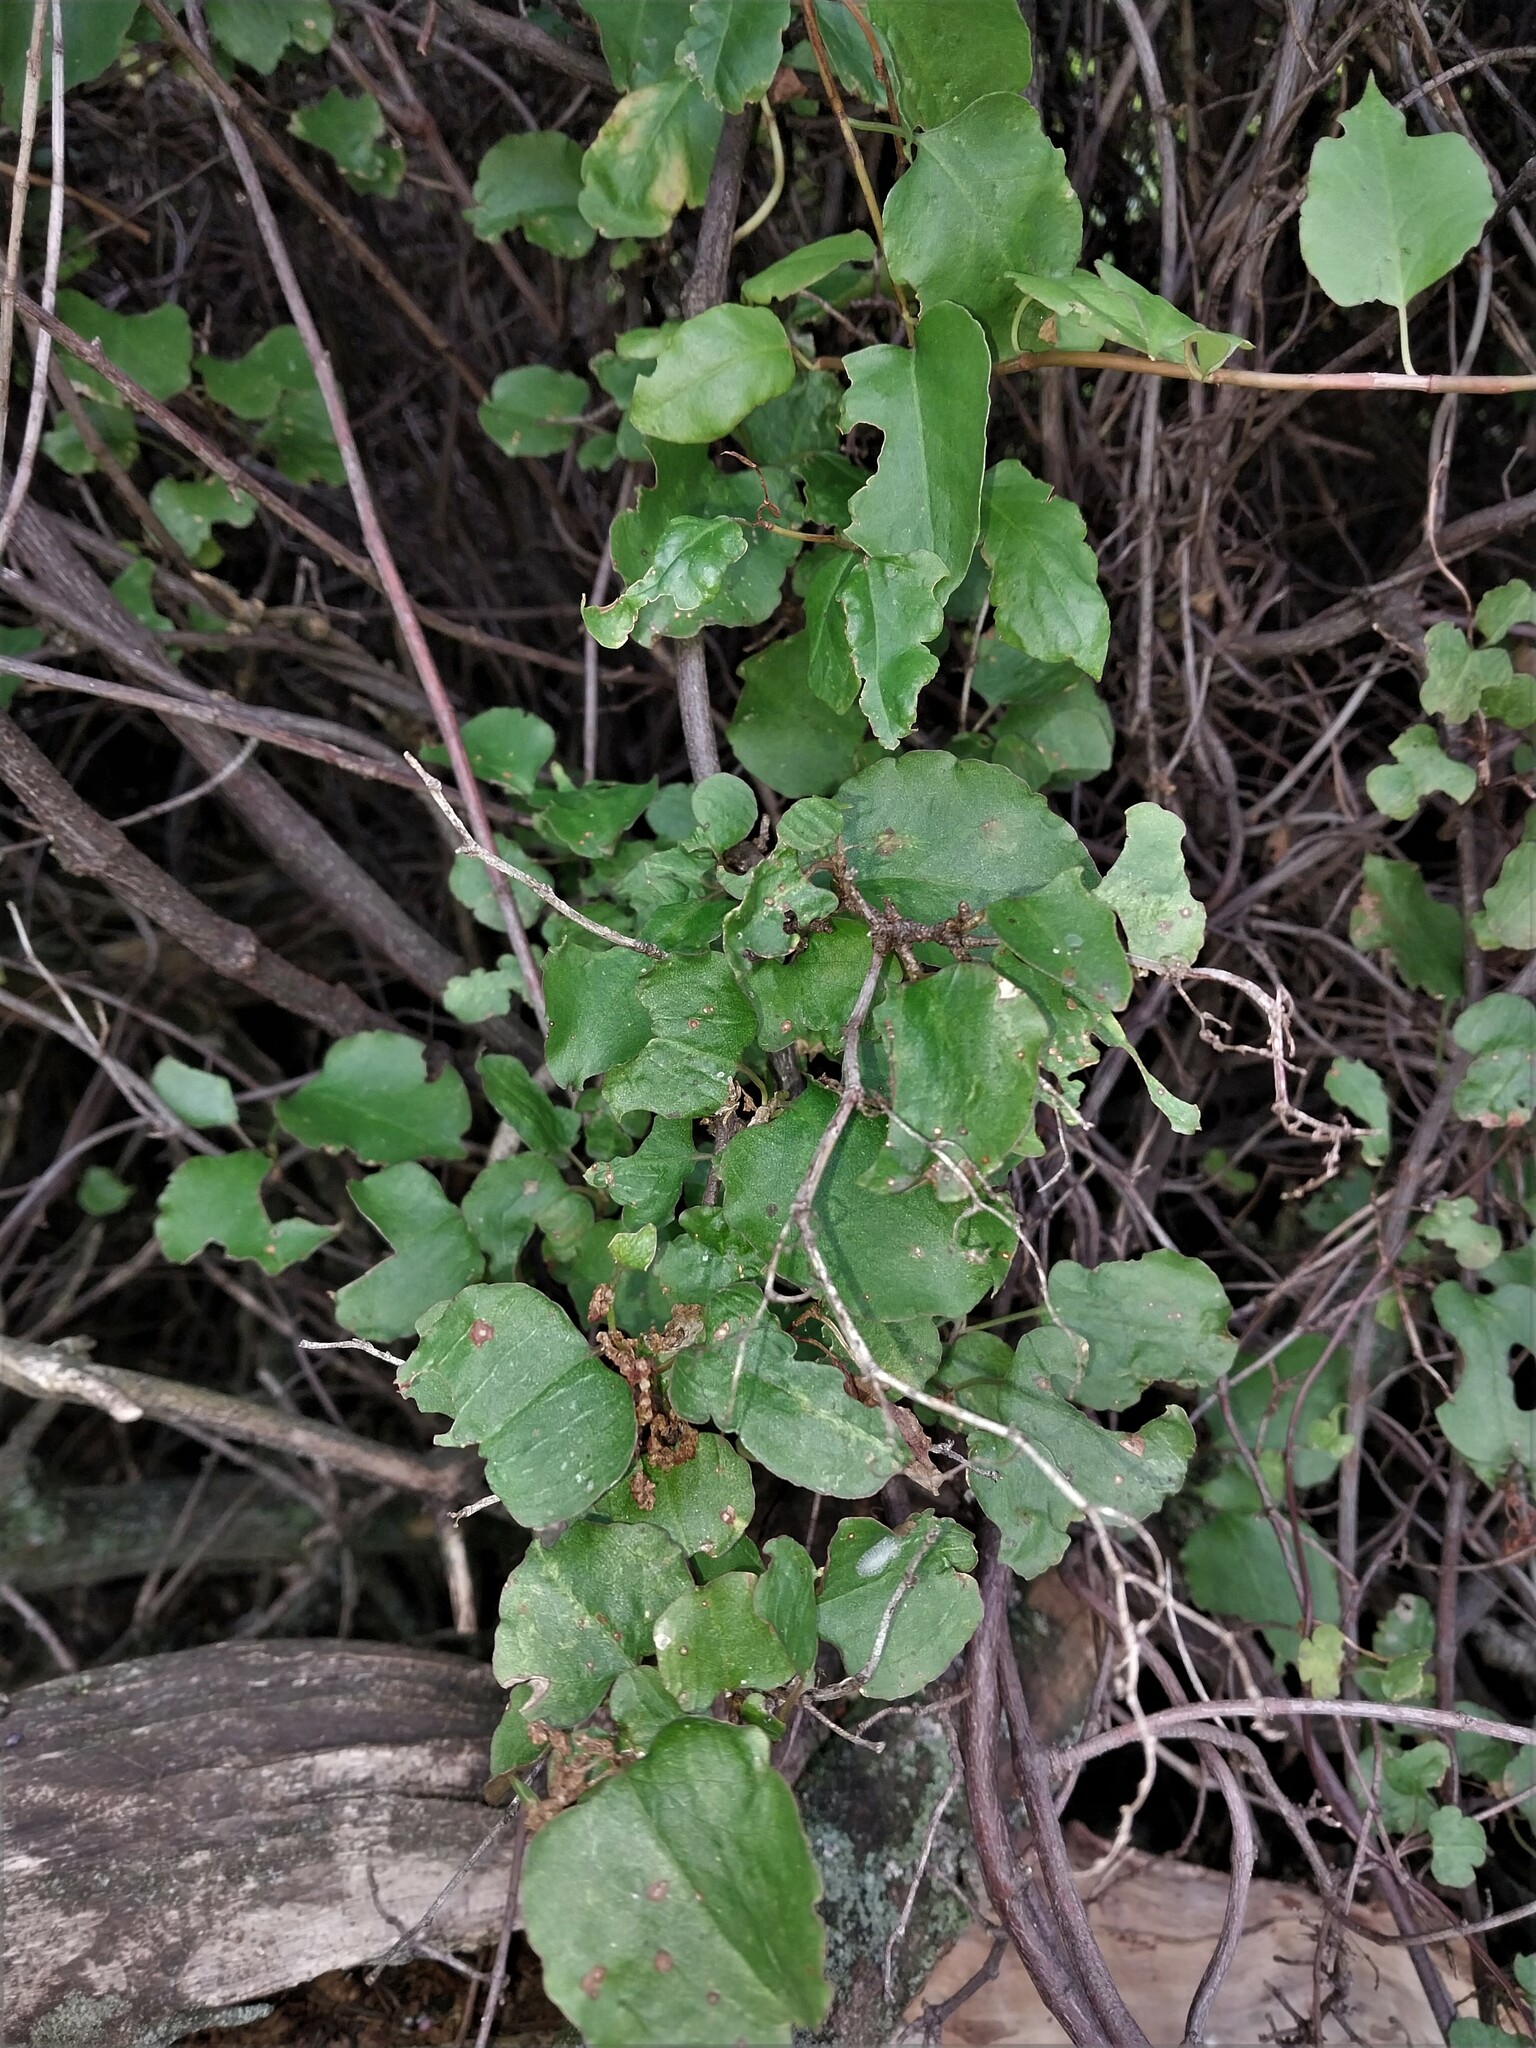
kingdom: Plantae
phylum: Tracheophyta
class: Magnoliopsida
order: Caryophyllales
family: Polygonaceae
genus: Muehlenbeckia
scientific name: Muehlenbeckia australis
